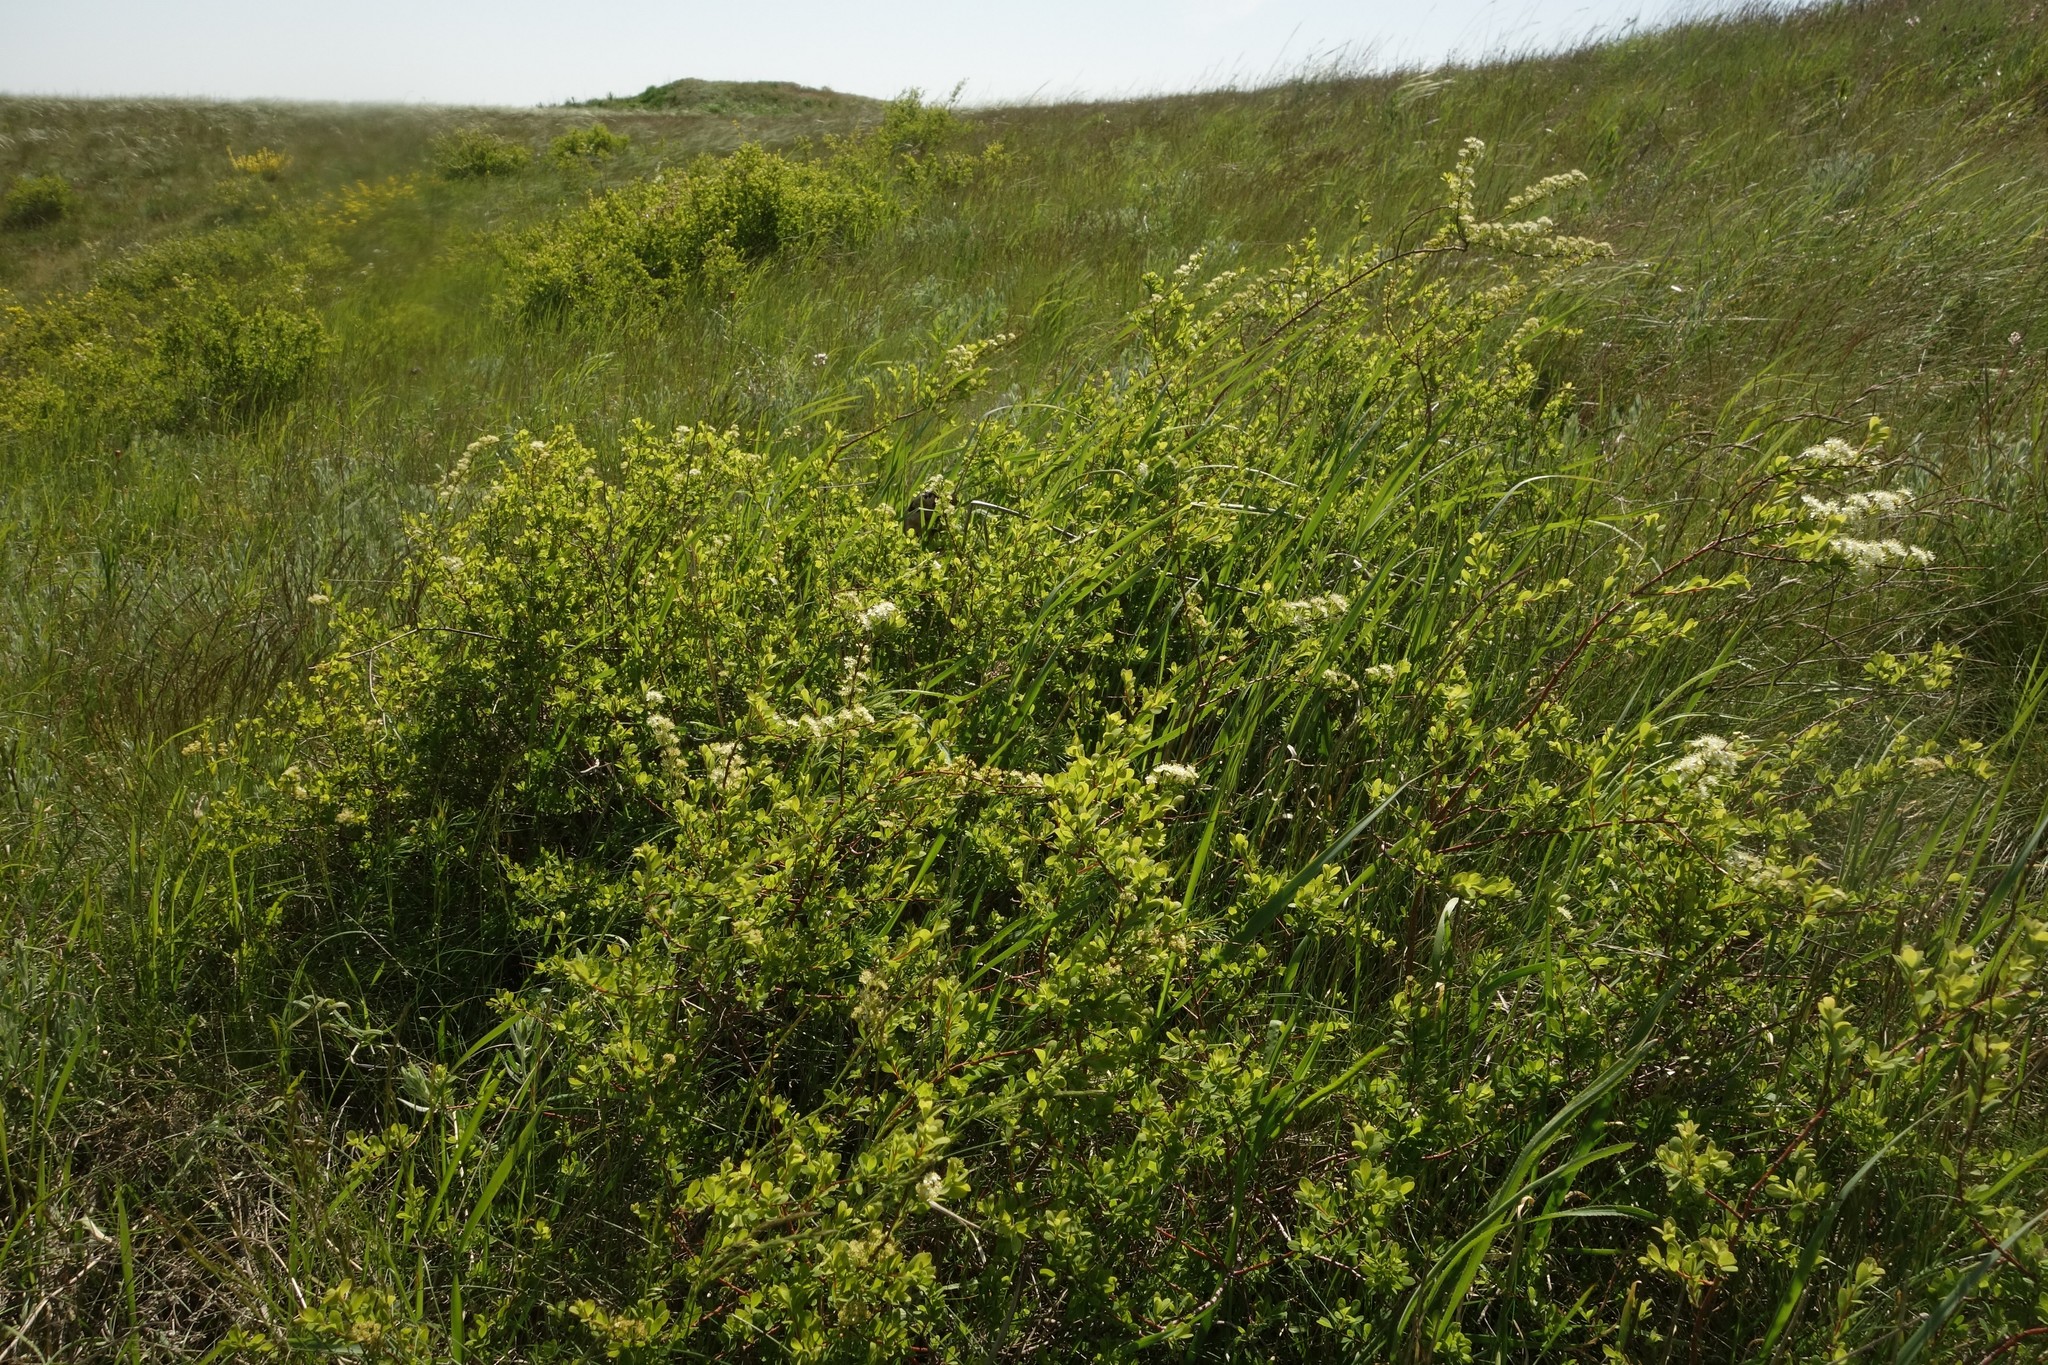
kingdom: Plantae
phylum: Tracheophyta
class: Magnoliopsida
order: Rosales
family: Rosaceae
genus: Spiraea
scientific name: Spiraea hypericifolia
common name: Iberian spirea
